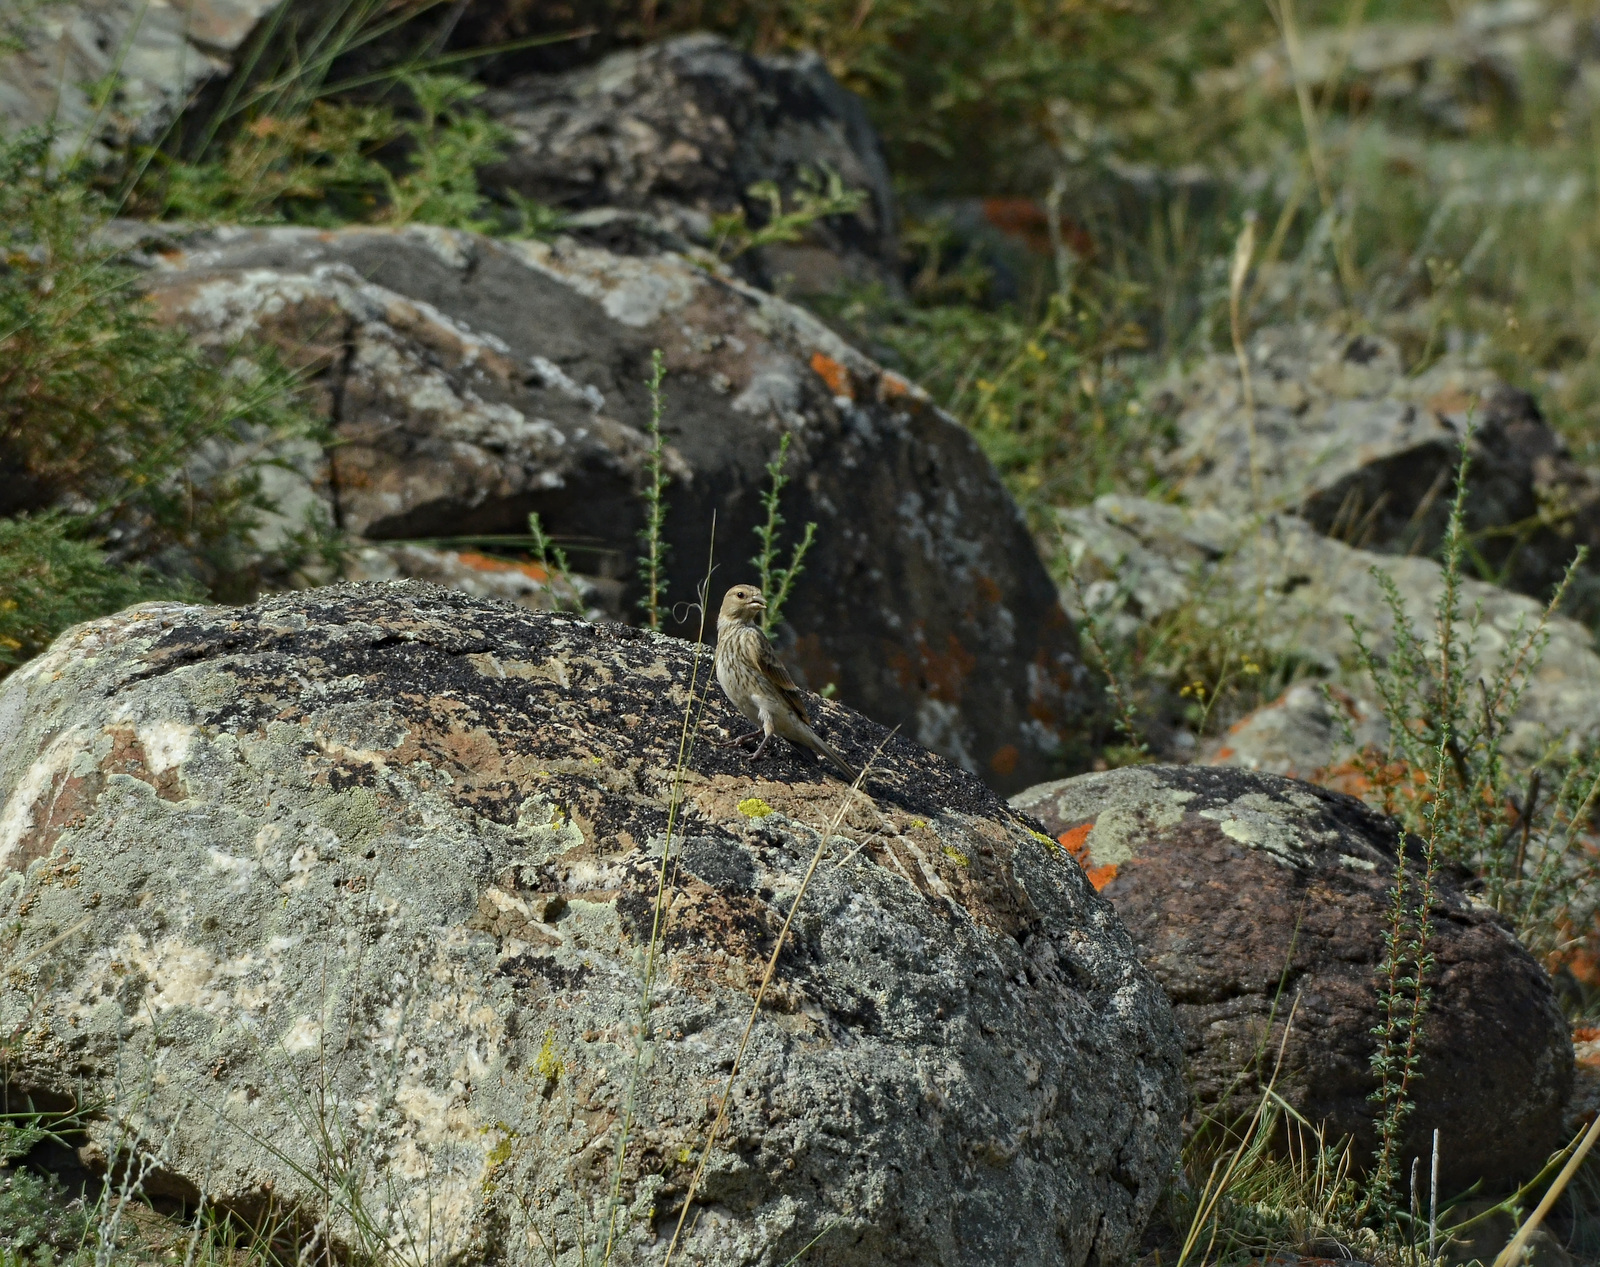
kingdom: Animalia
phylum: Chordata
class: Aves
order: Passeriformes
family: Fringillidae
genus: Linaria
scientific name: Linaria cannabina
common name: Common linnet
